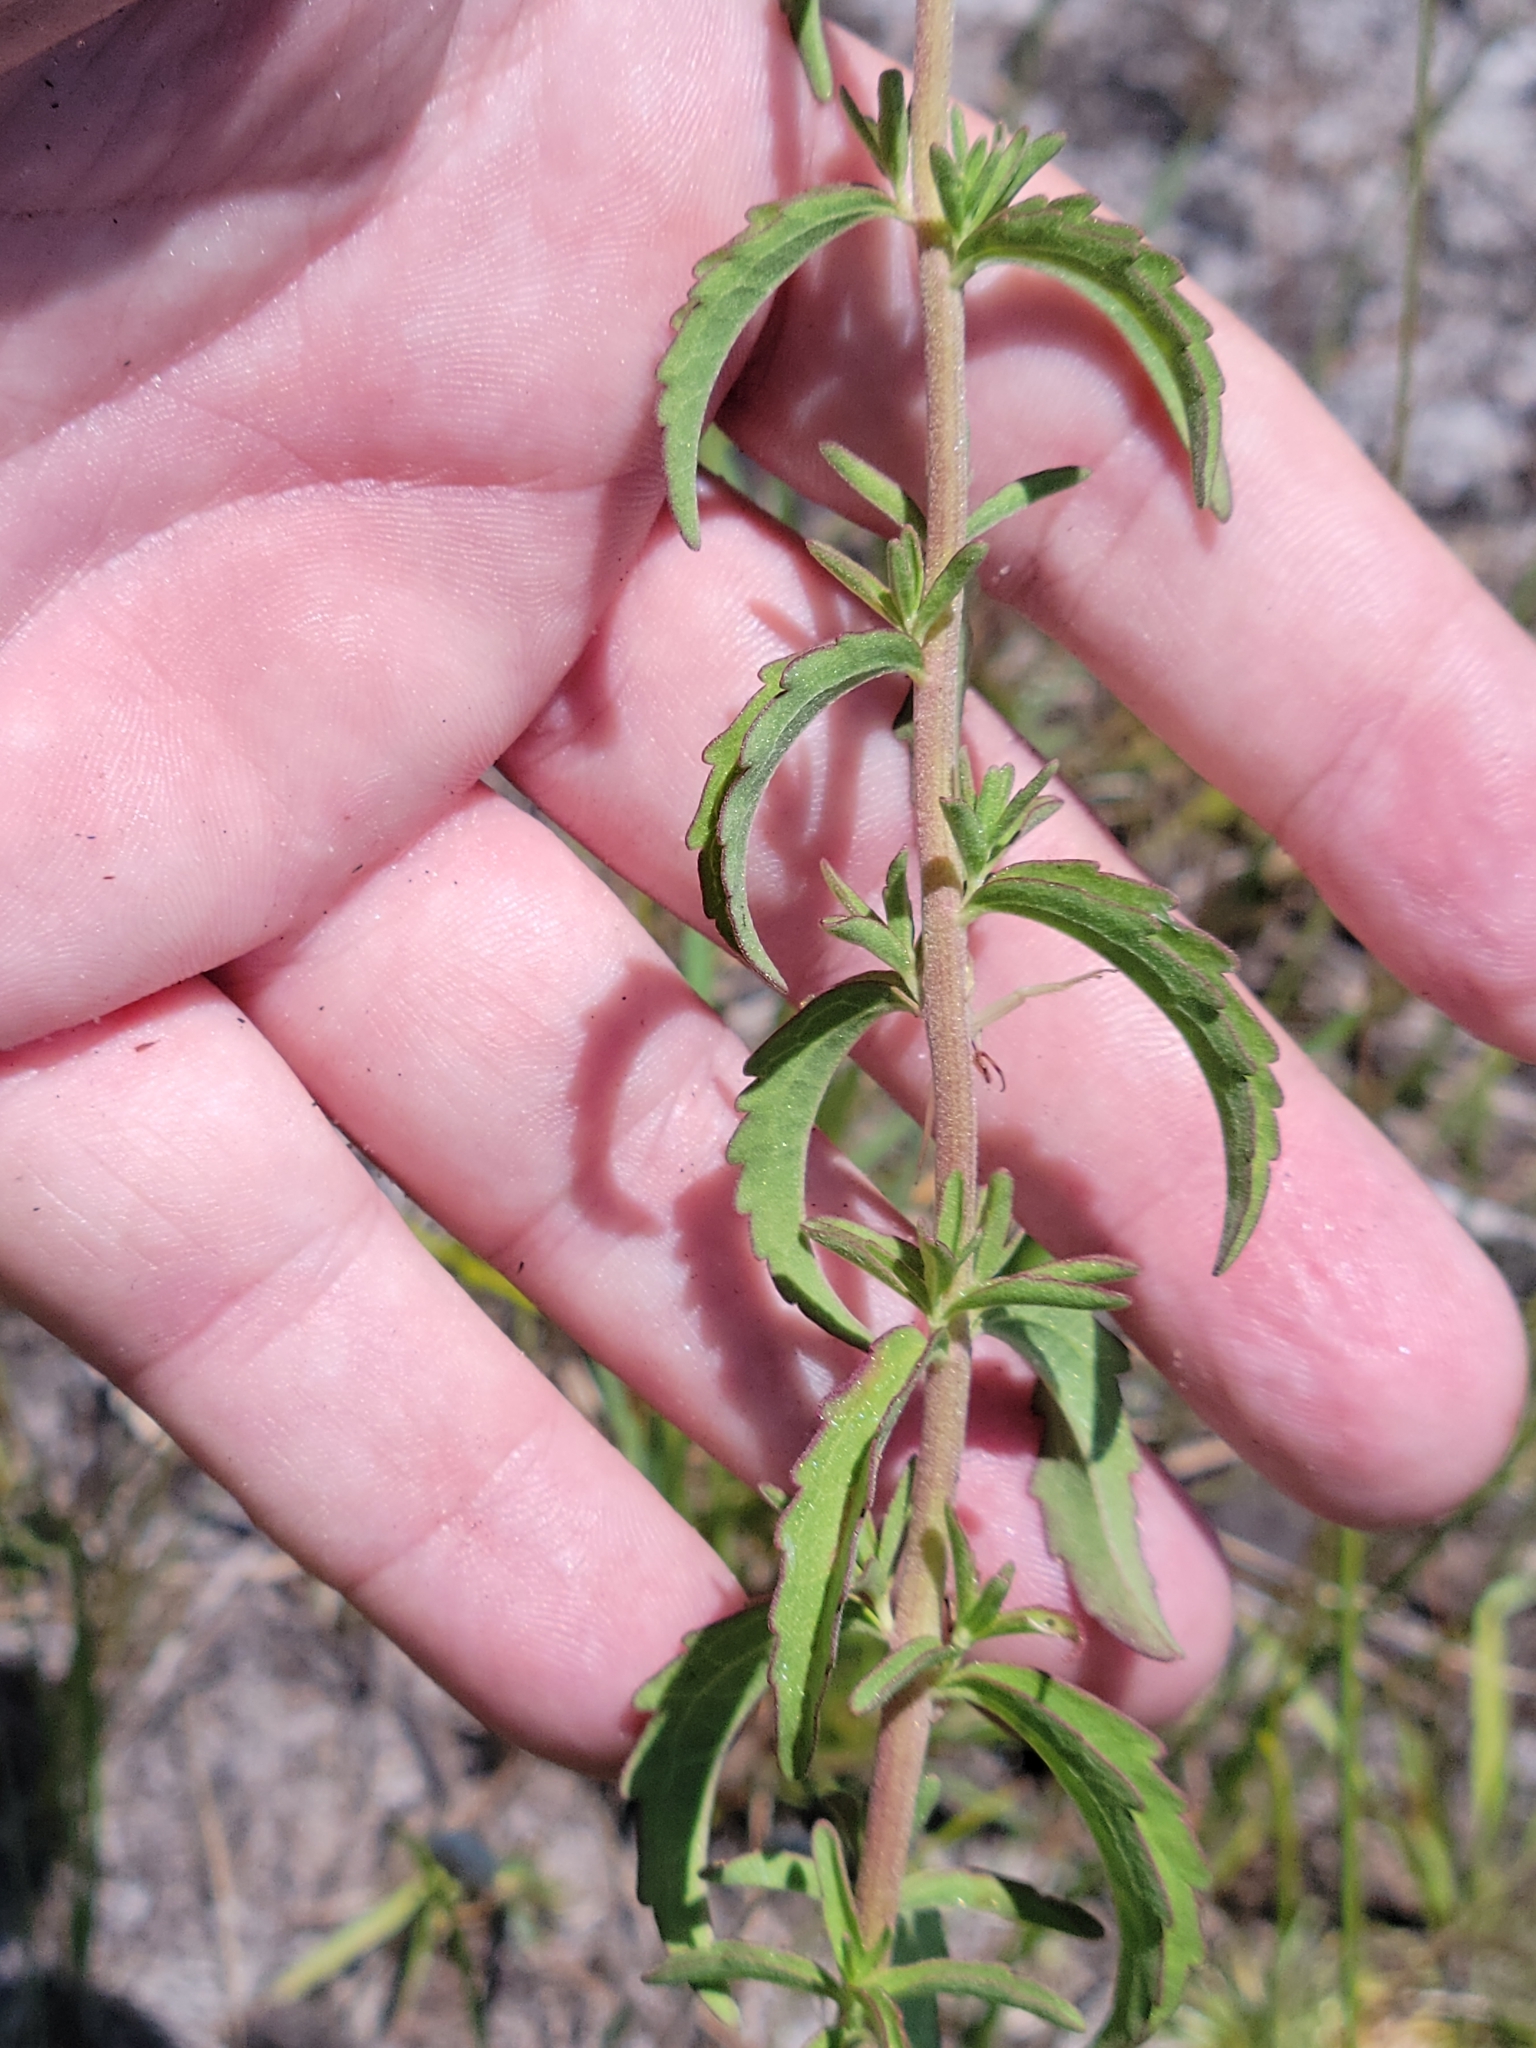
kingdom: Plantae
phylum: Tracheophyta
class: Magnoliopsida
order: Asterales
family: Asteraceae
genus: Eupatorium
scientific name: Eupatorium mohrii
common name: Mohr's thoroughwort
